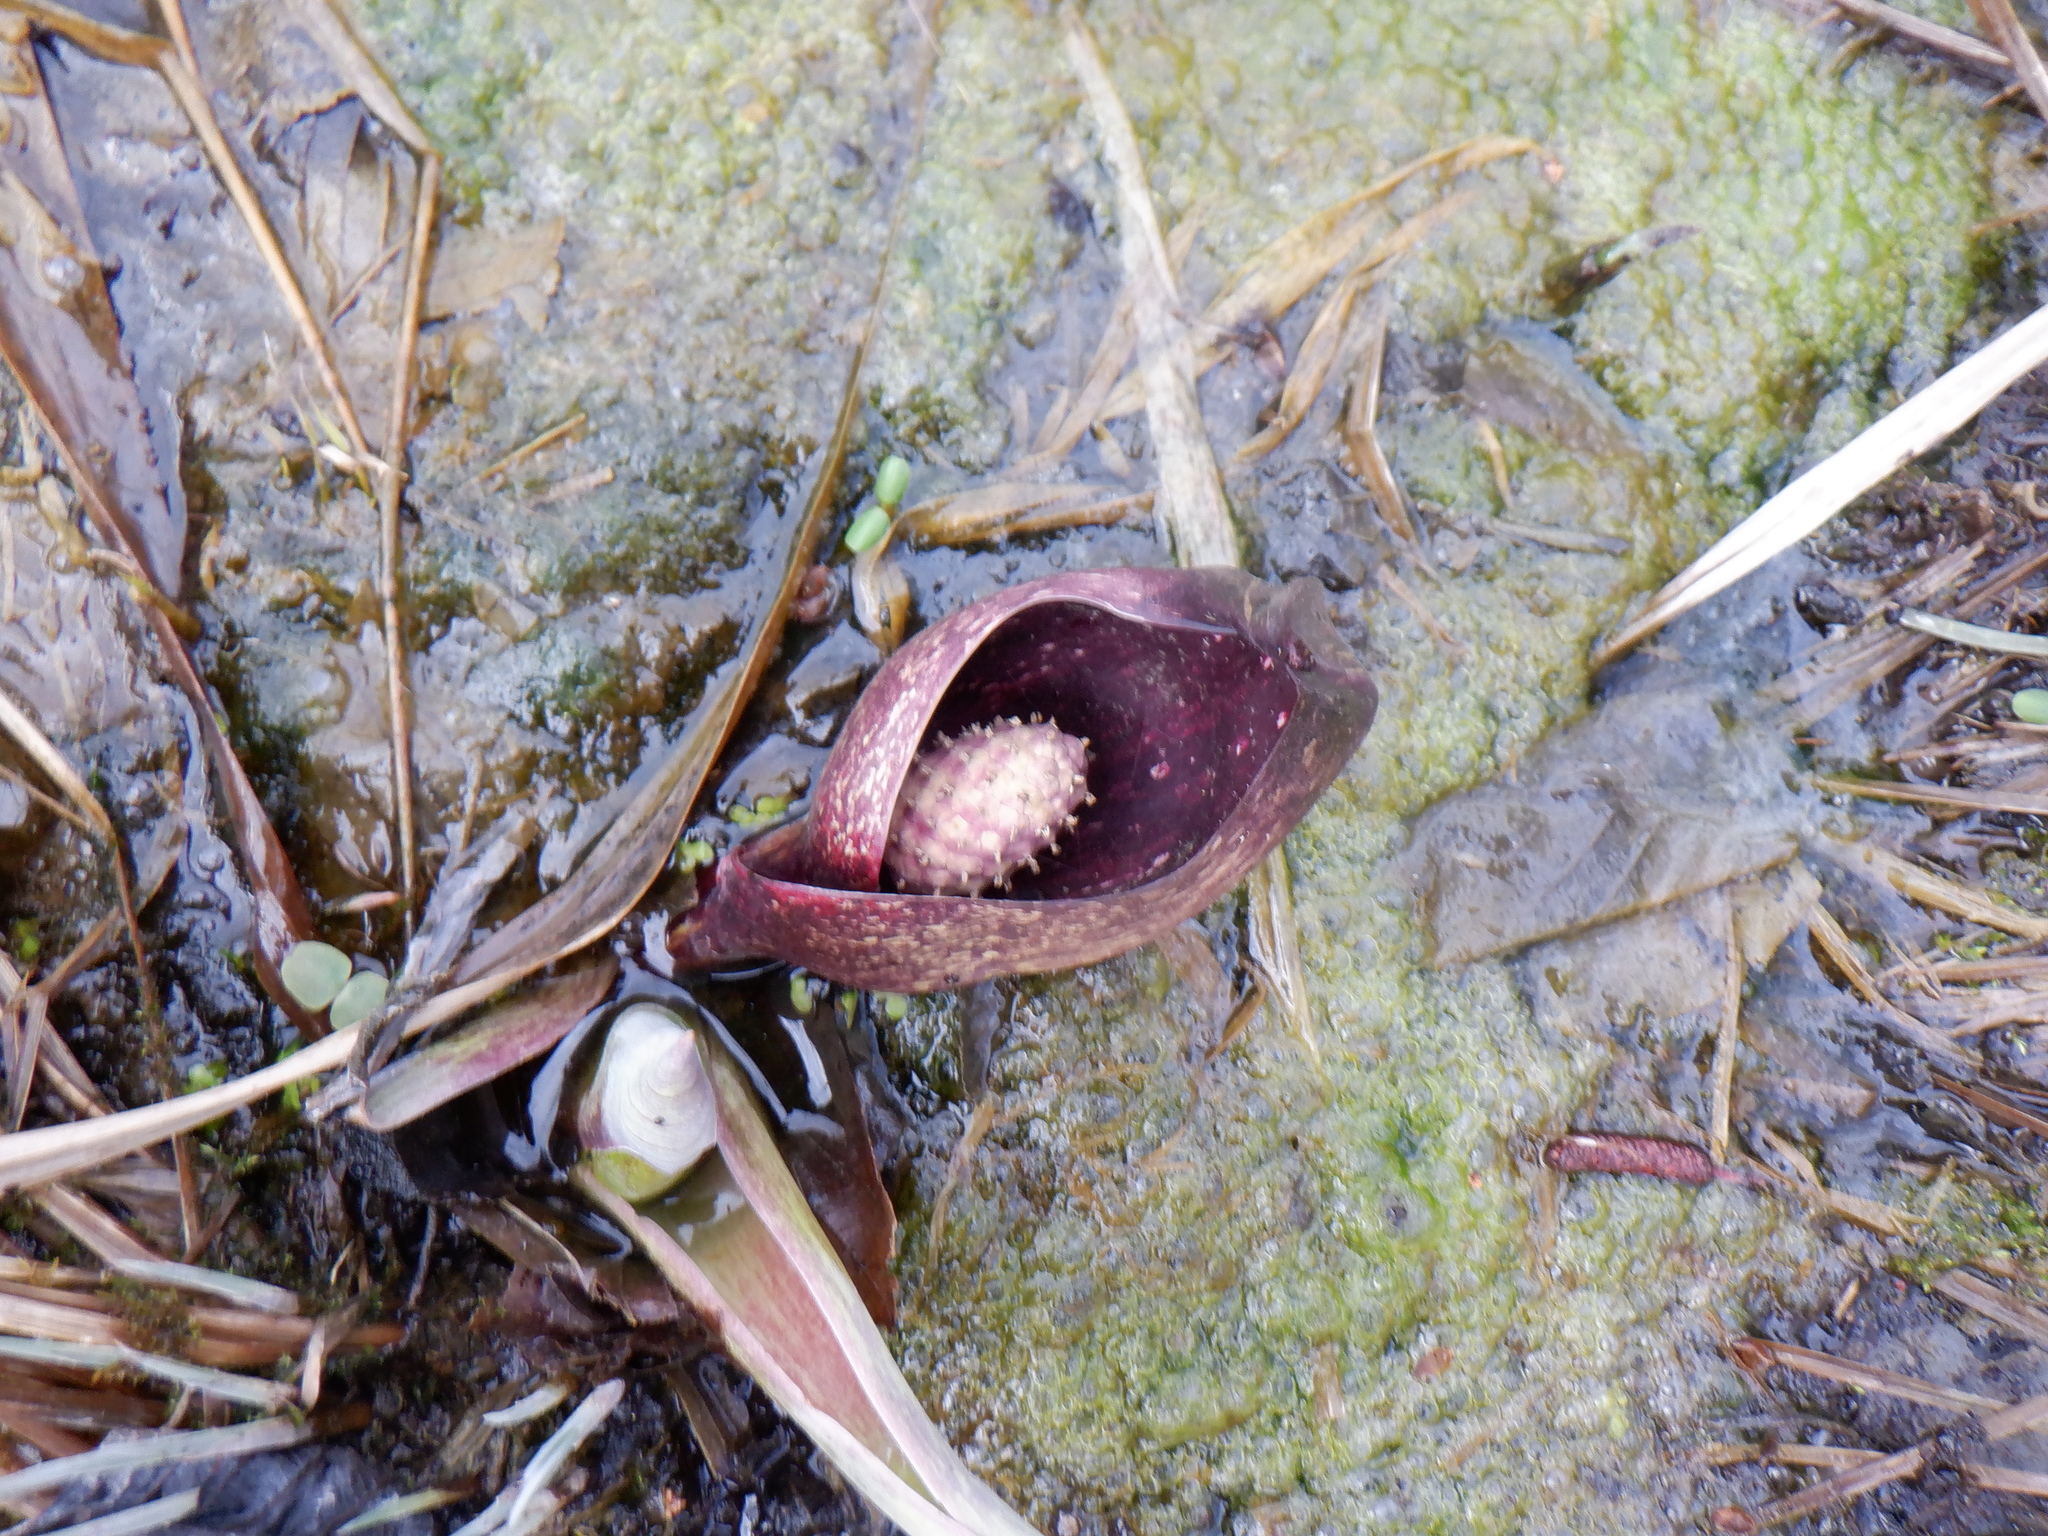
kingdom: Plantae
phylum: Tracheophyta
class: Liliopsida
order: Alismatales
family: Araceae
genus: Symplocarpus
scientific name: Symplocarpus foetidus
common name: Eastern skunk cabbage
